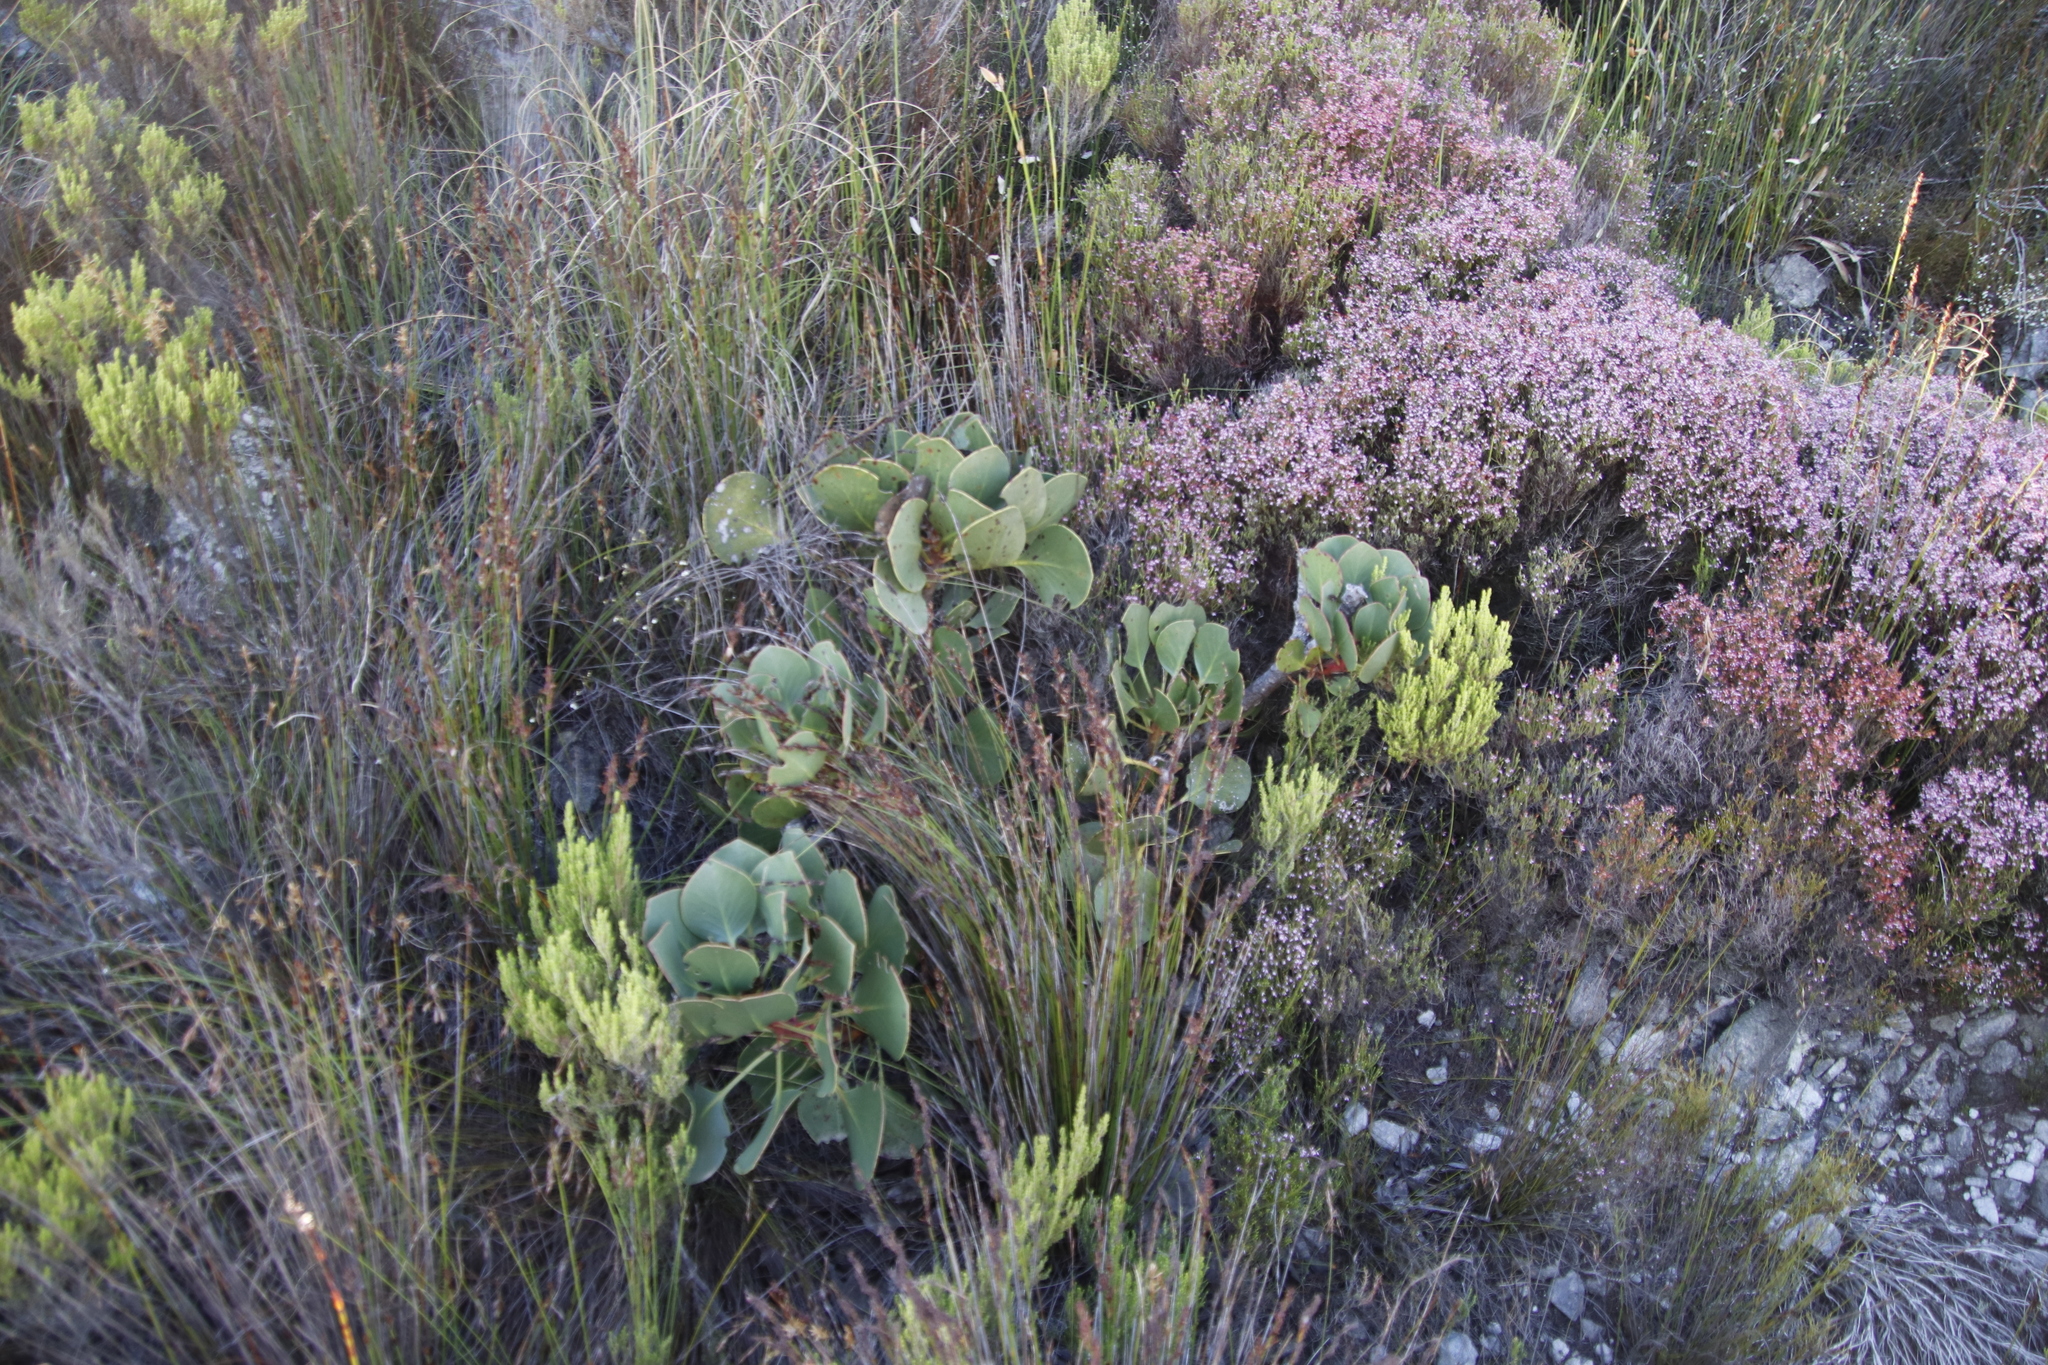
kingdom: Plantae
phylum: Tracheophyta
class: Magnoliopsida
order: Proteales
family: Proteaceae
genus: Protea
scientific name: Protea cynaroides
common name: King protea
